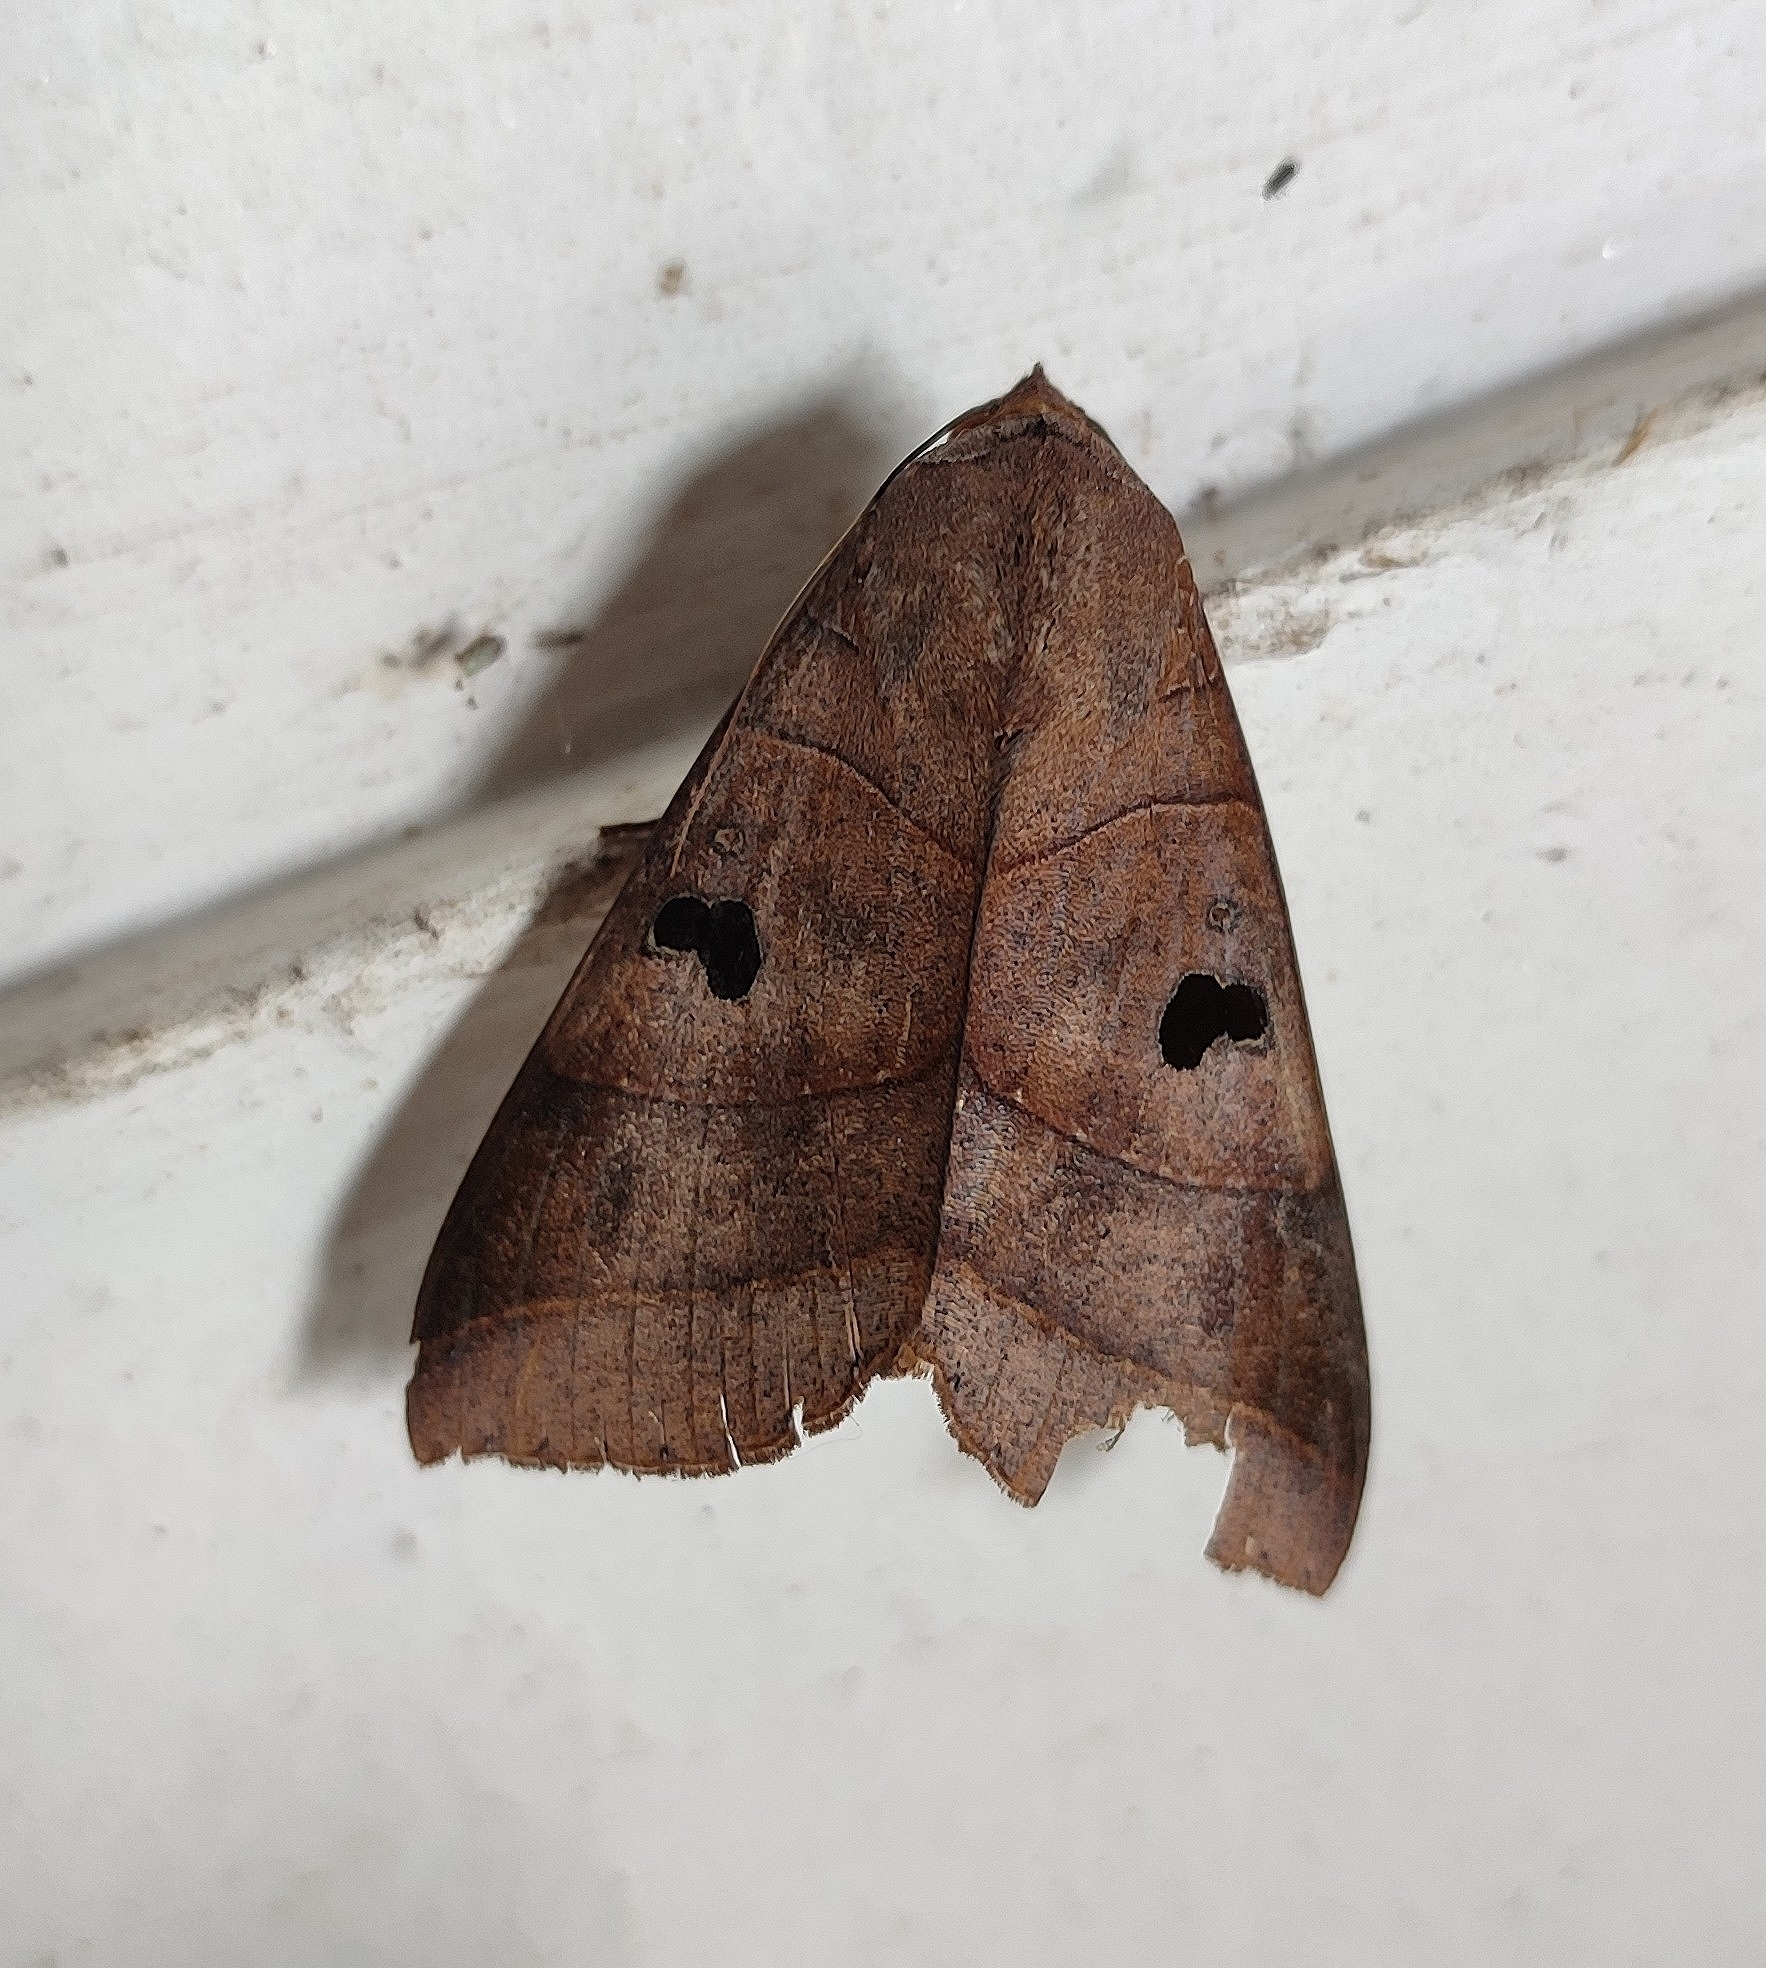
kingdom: Animalia
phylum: Arthropoda
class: Insecta
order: Lepidoptera
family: Erebidae
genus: Thyas
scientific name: Thyas coronata
